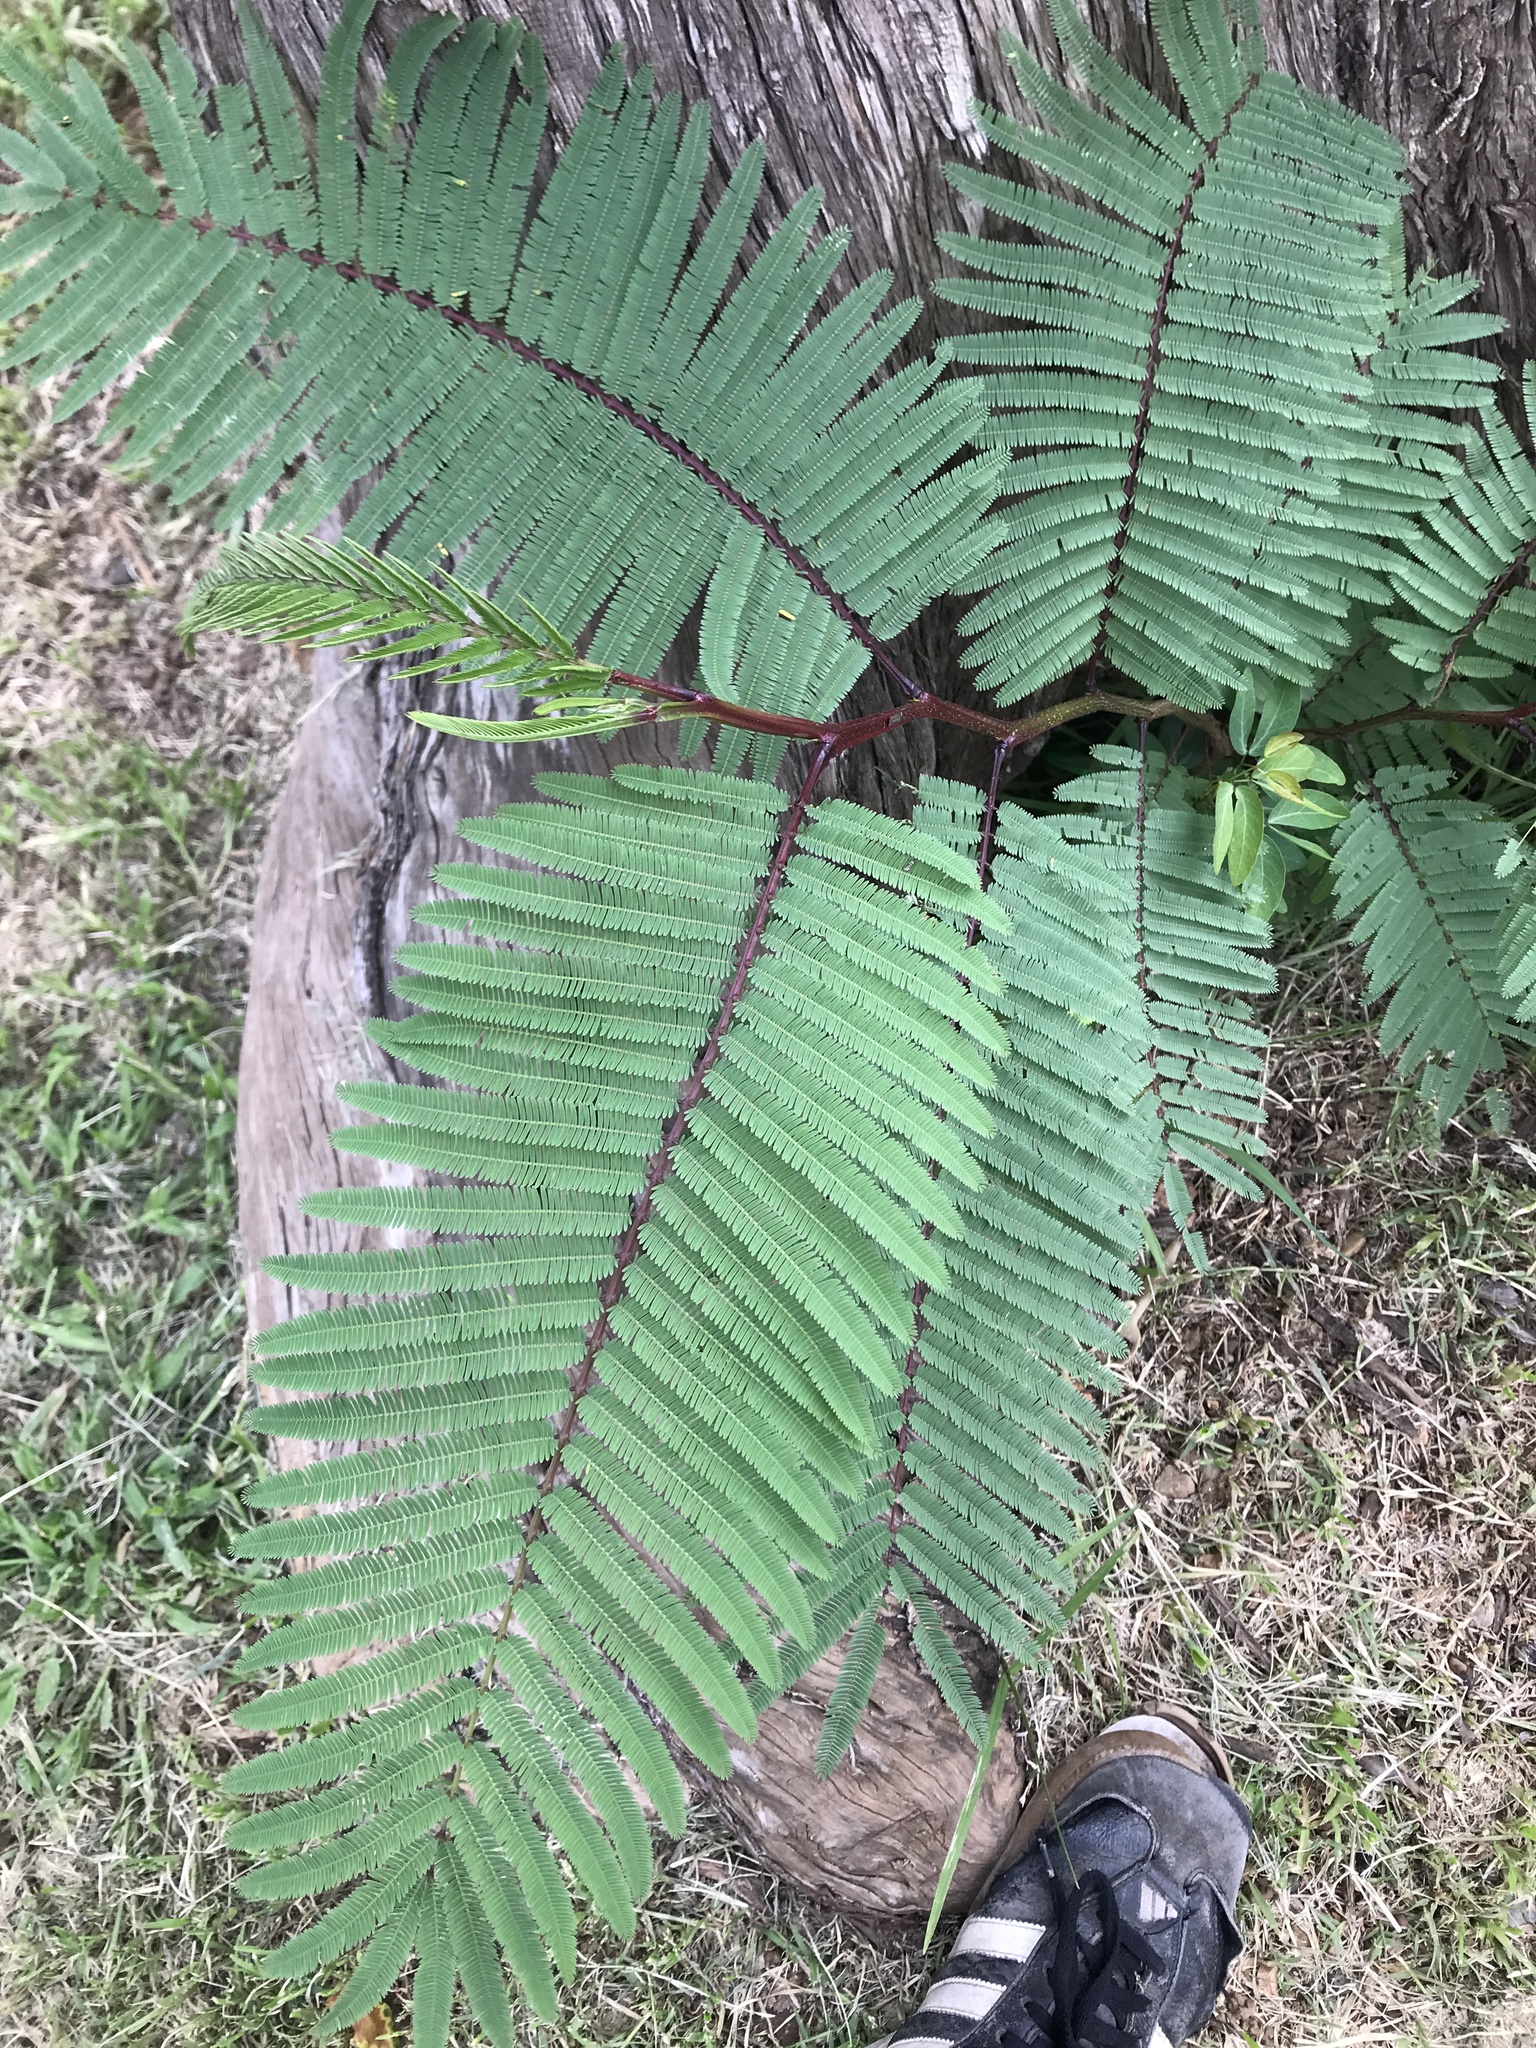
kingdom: Plantae
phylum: Tracheophyta
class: Magnoliopsida
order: Fabales
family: Fabaceae
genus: Vachellia
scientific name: Vachellia pennatula
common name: Fern-leaf acacia
